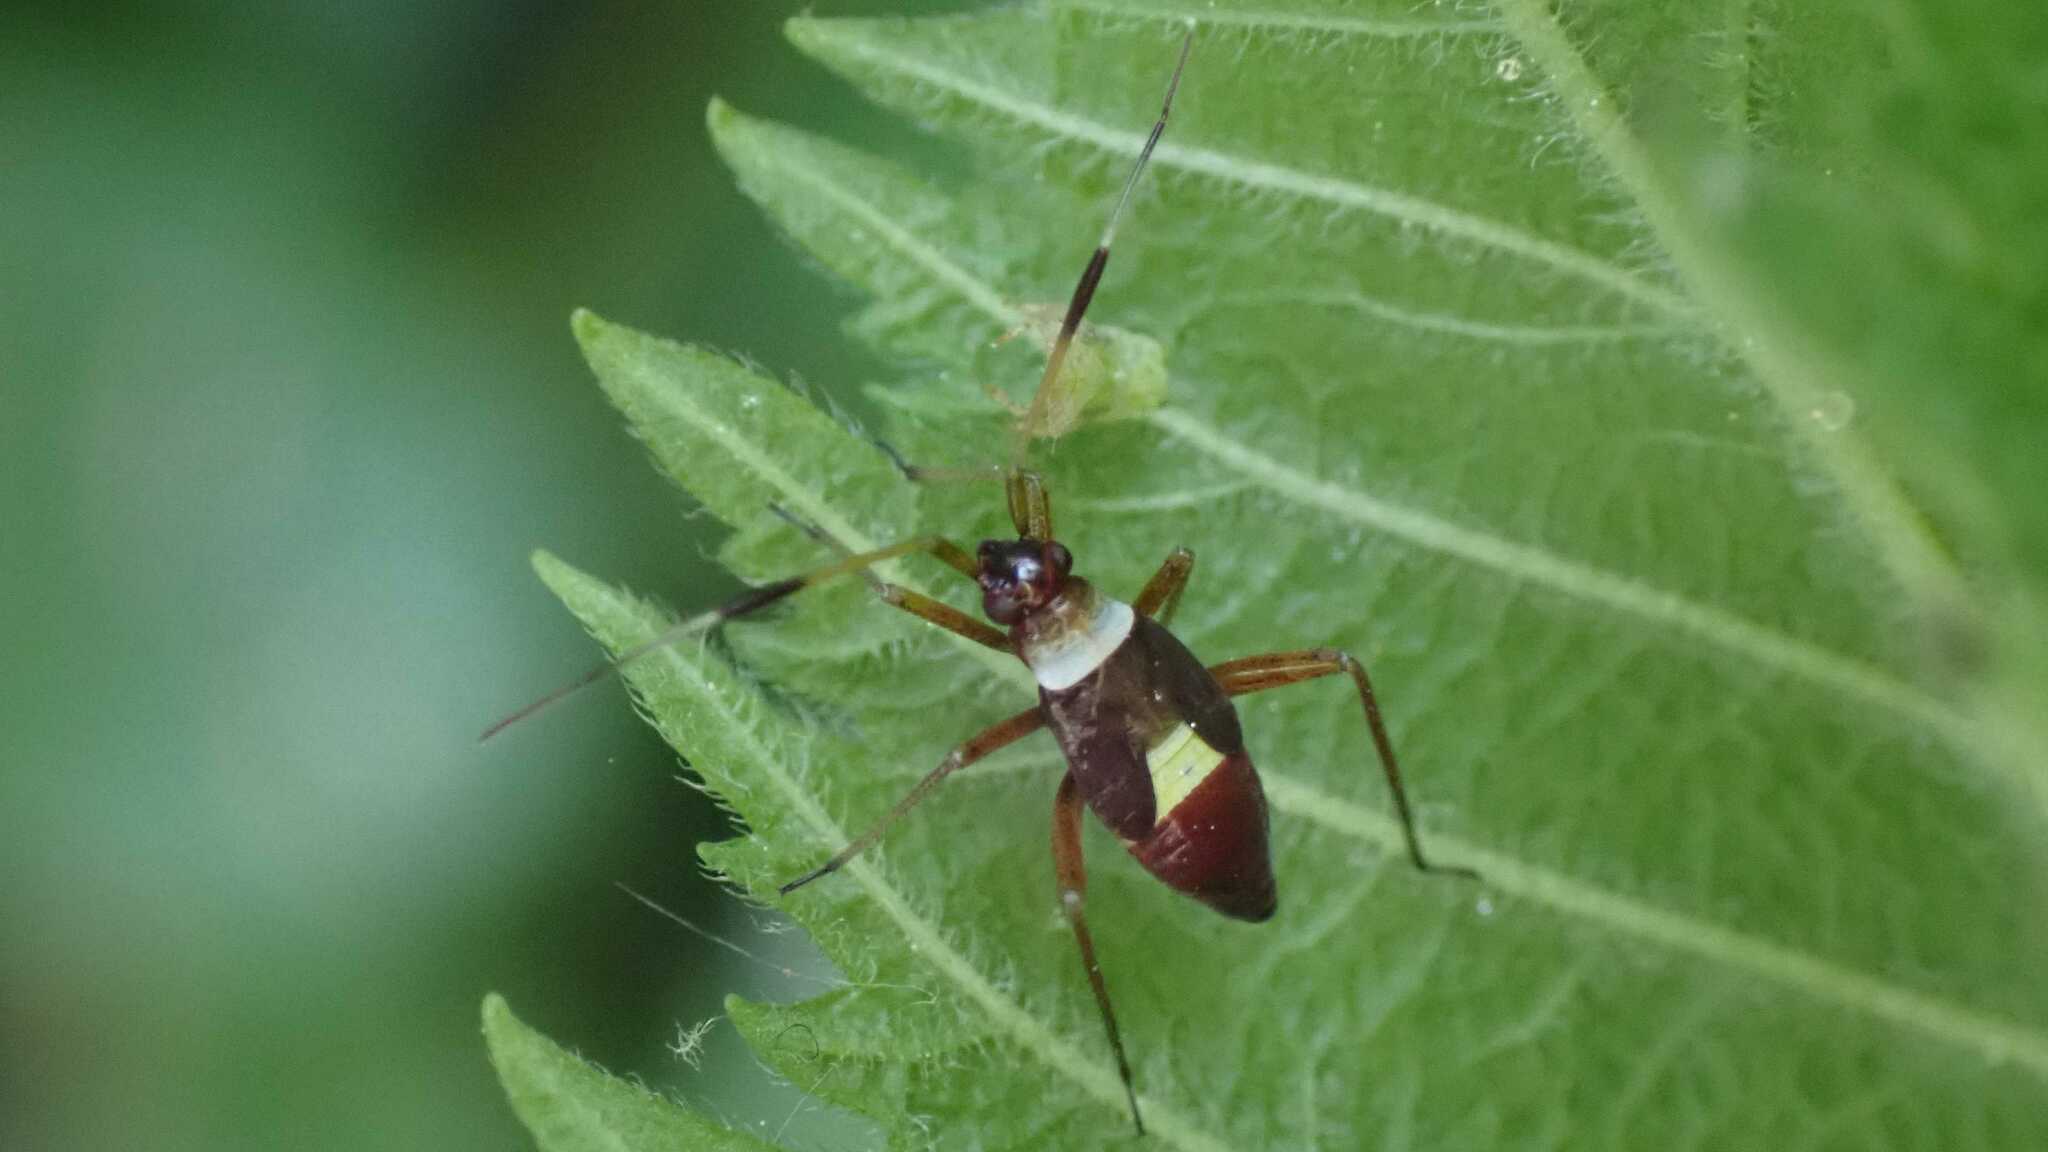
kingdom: Animalia
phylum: Arthropoda
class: Insecta
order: Hemiptera
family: Miridae
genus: Closterotomus
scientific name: Closterotomus biclavatus
